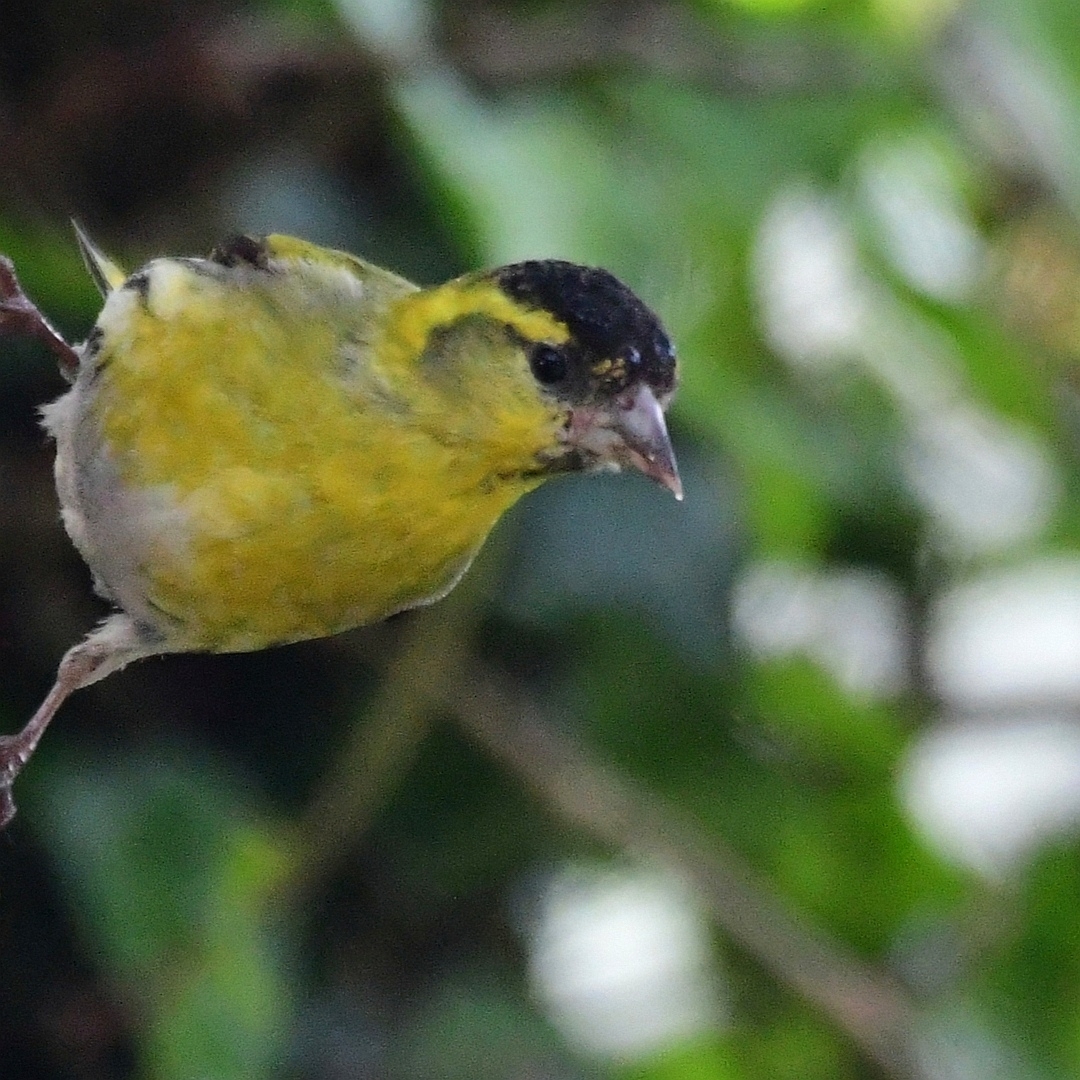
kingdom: Animalia
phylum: Chordata
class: Aves
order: Passeriformes
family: Fringillidae
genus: Spinus
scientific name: Spinus spinus
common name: Eurasian siskin
